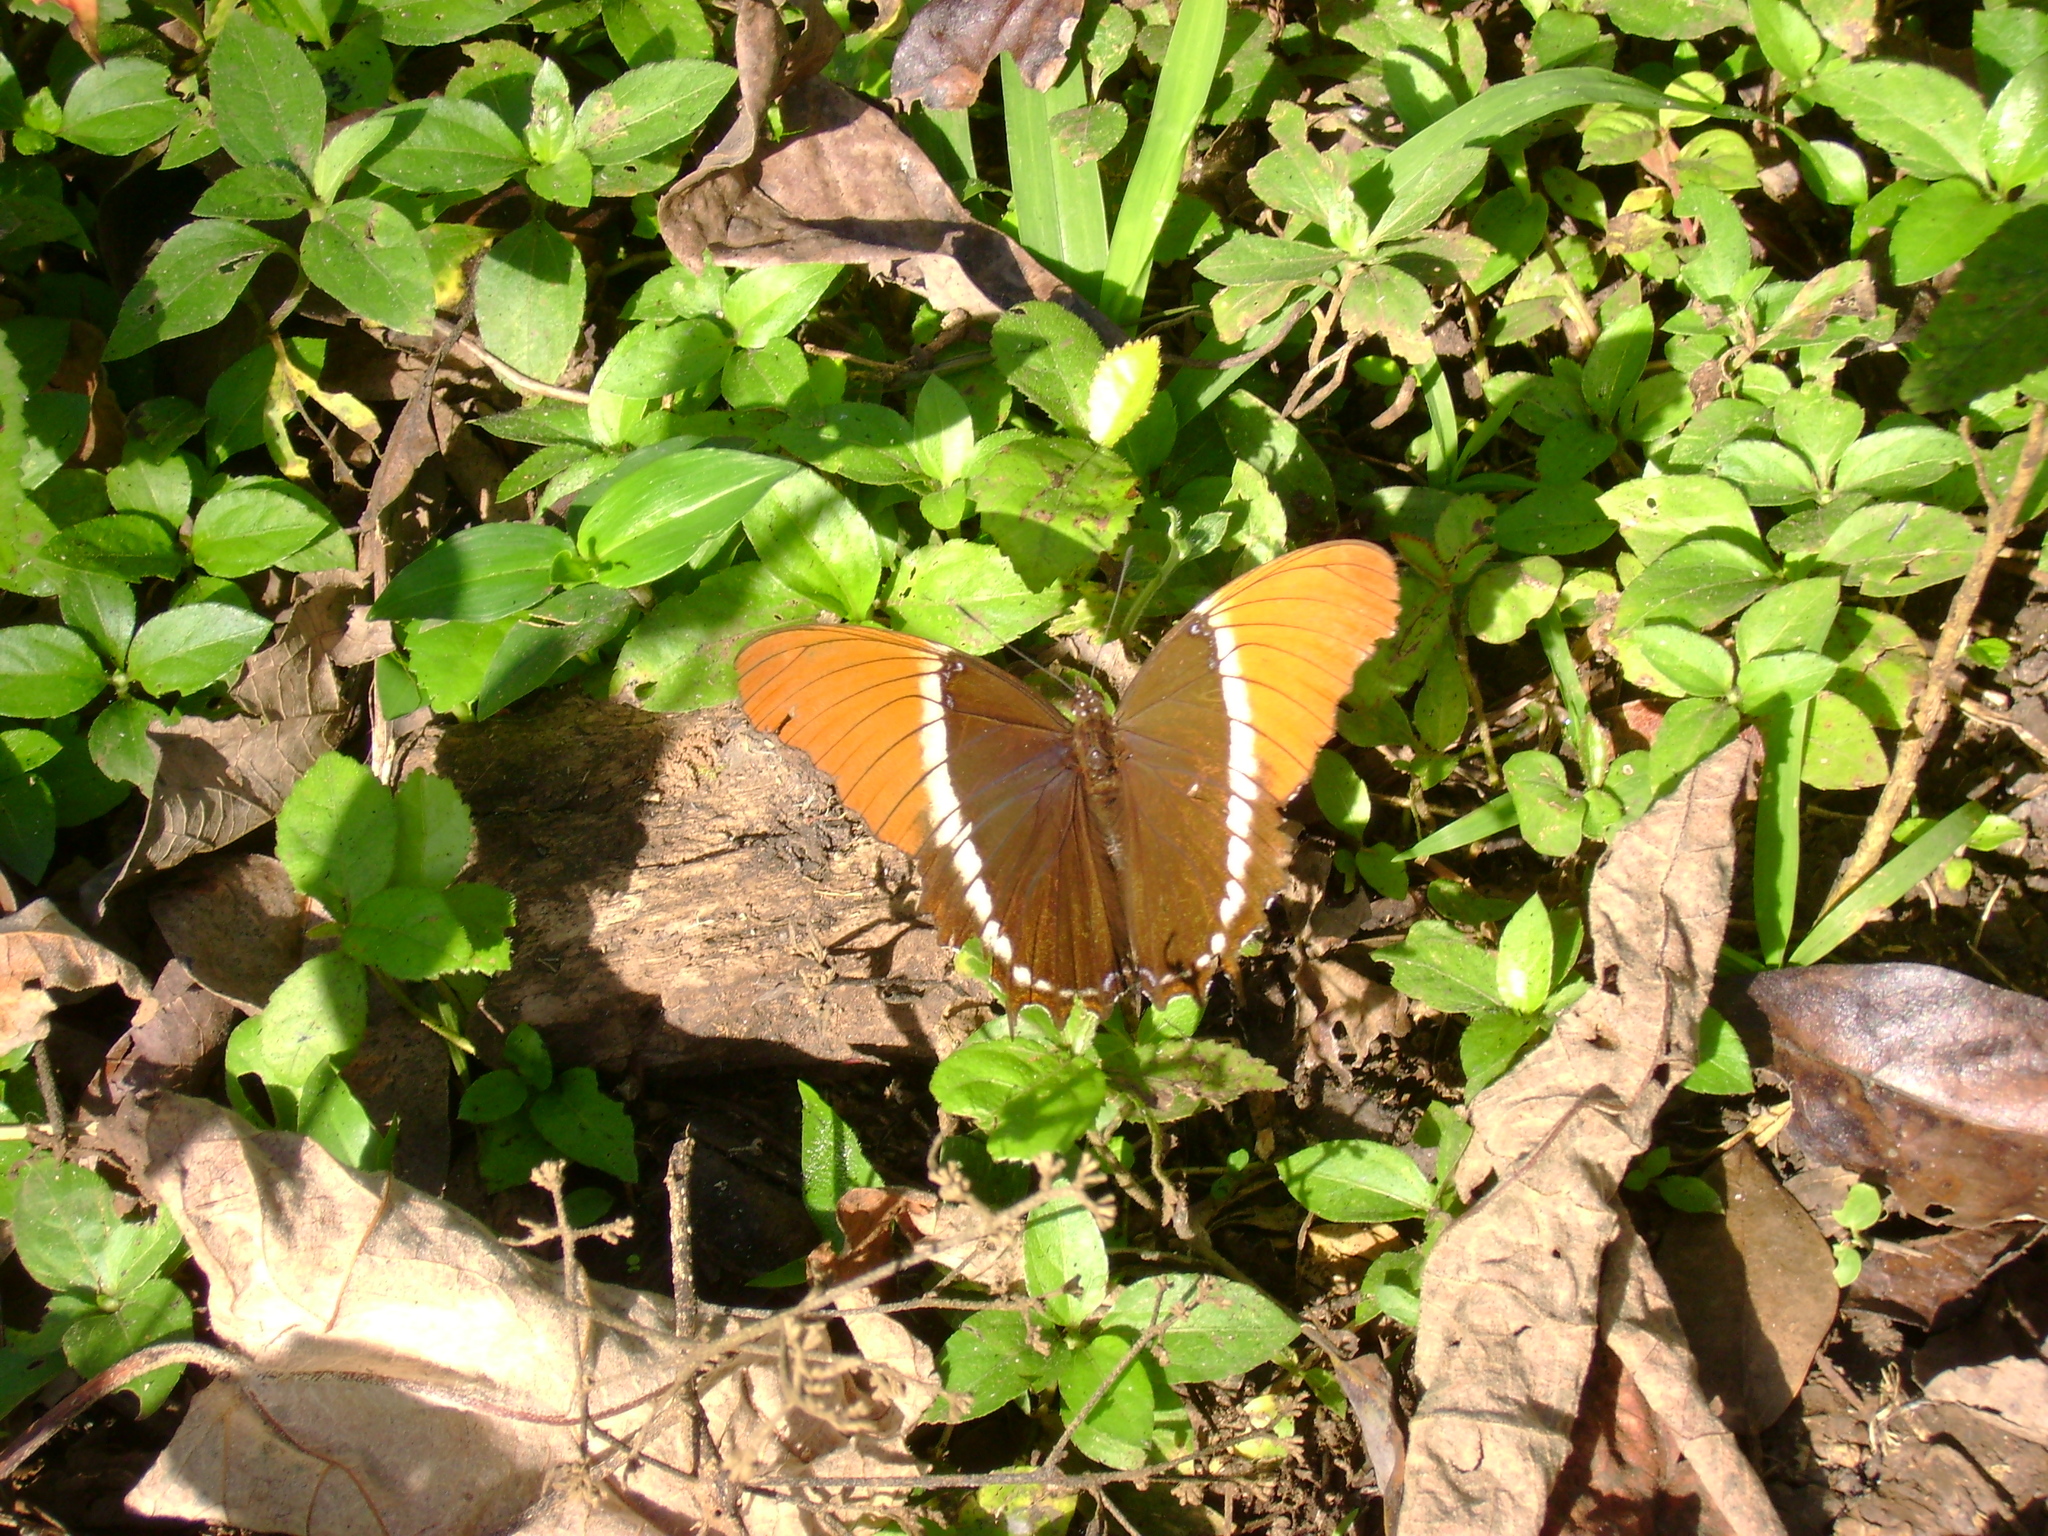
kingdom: Animalia
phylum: Arthropoda
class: Insecta
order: Lepidoptera
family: Nymphalidae
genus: Siproeta
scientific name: Siproeta epaphus
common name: Rusty-tipped page
